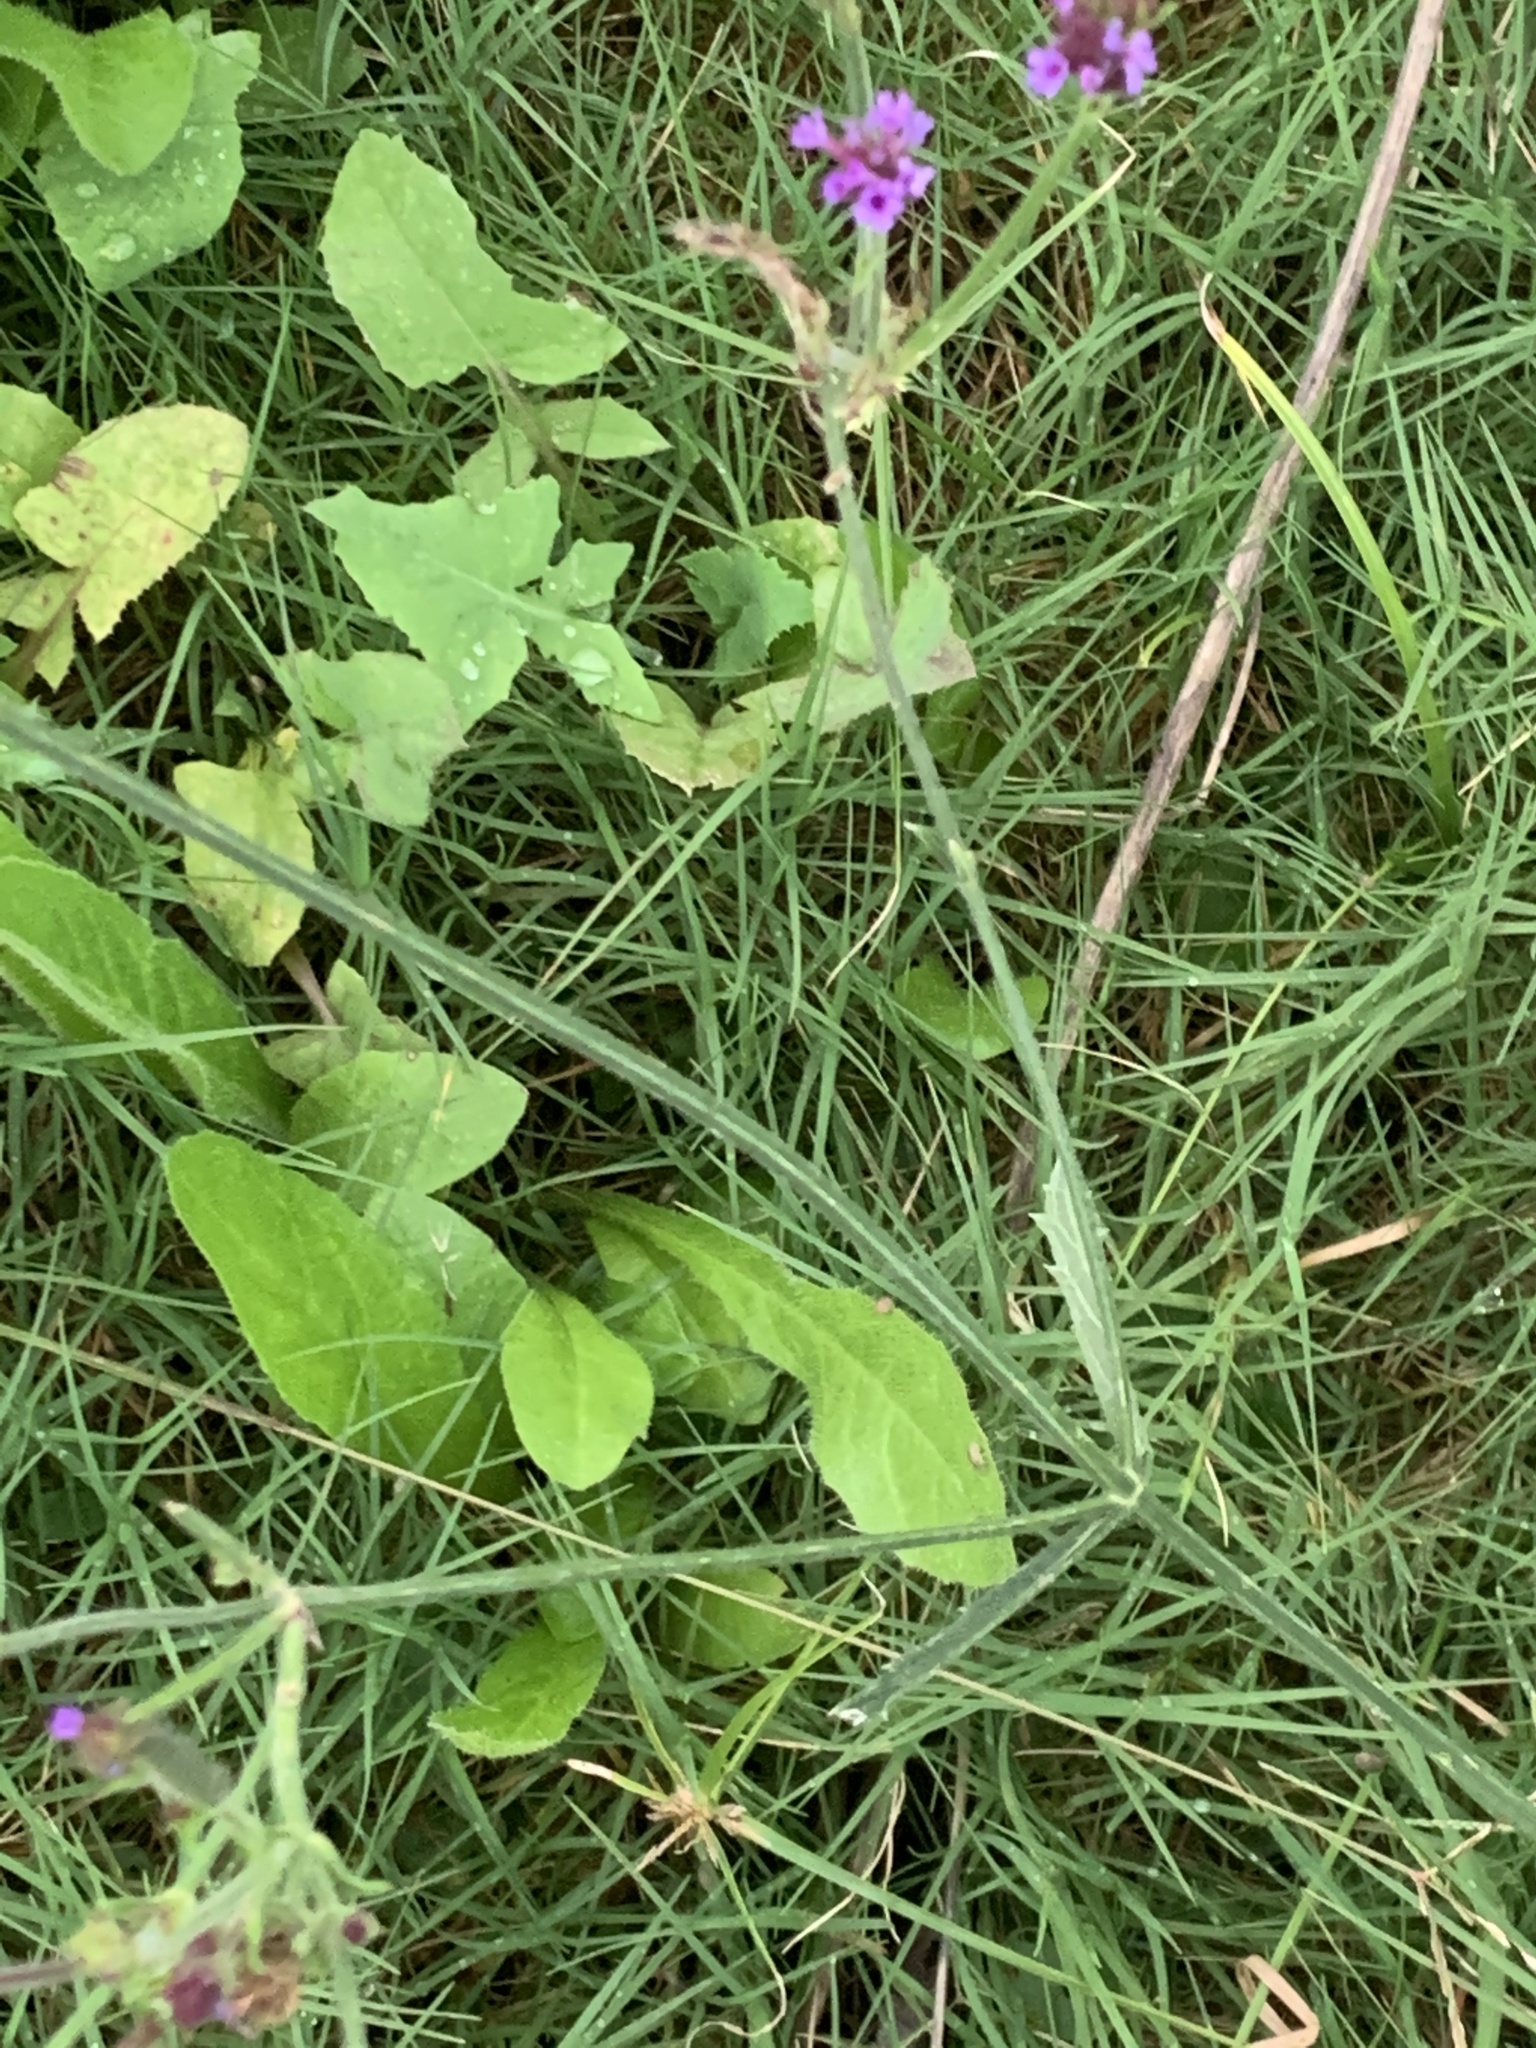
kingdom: Plantae
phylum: Tracheophyta
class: Magnoliopsida
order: Lamiales
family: Verbenaceae
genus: Verbena
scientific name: Verbena intermedia
